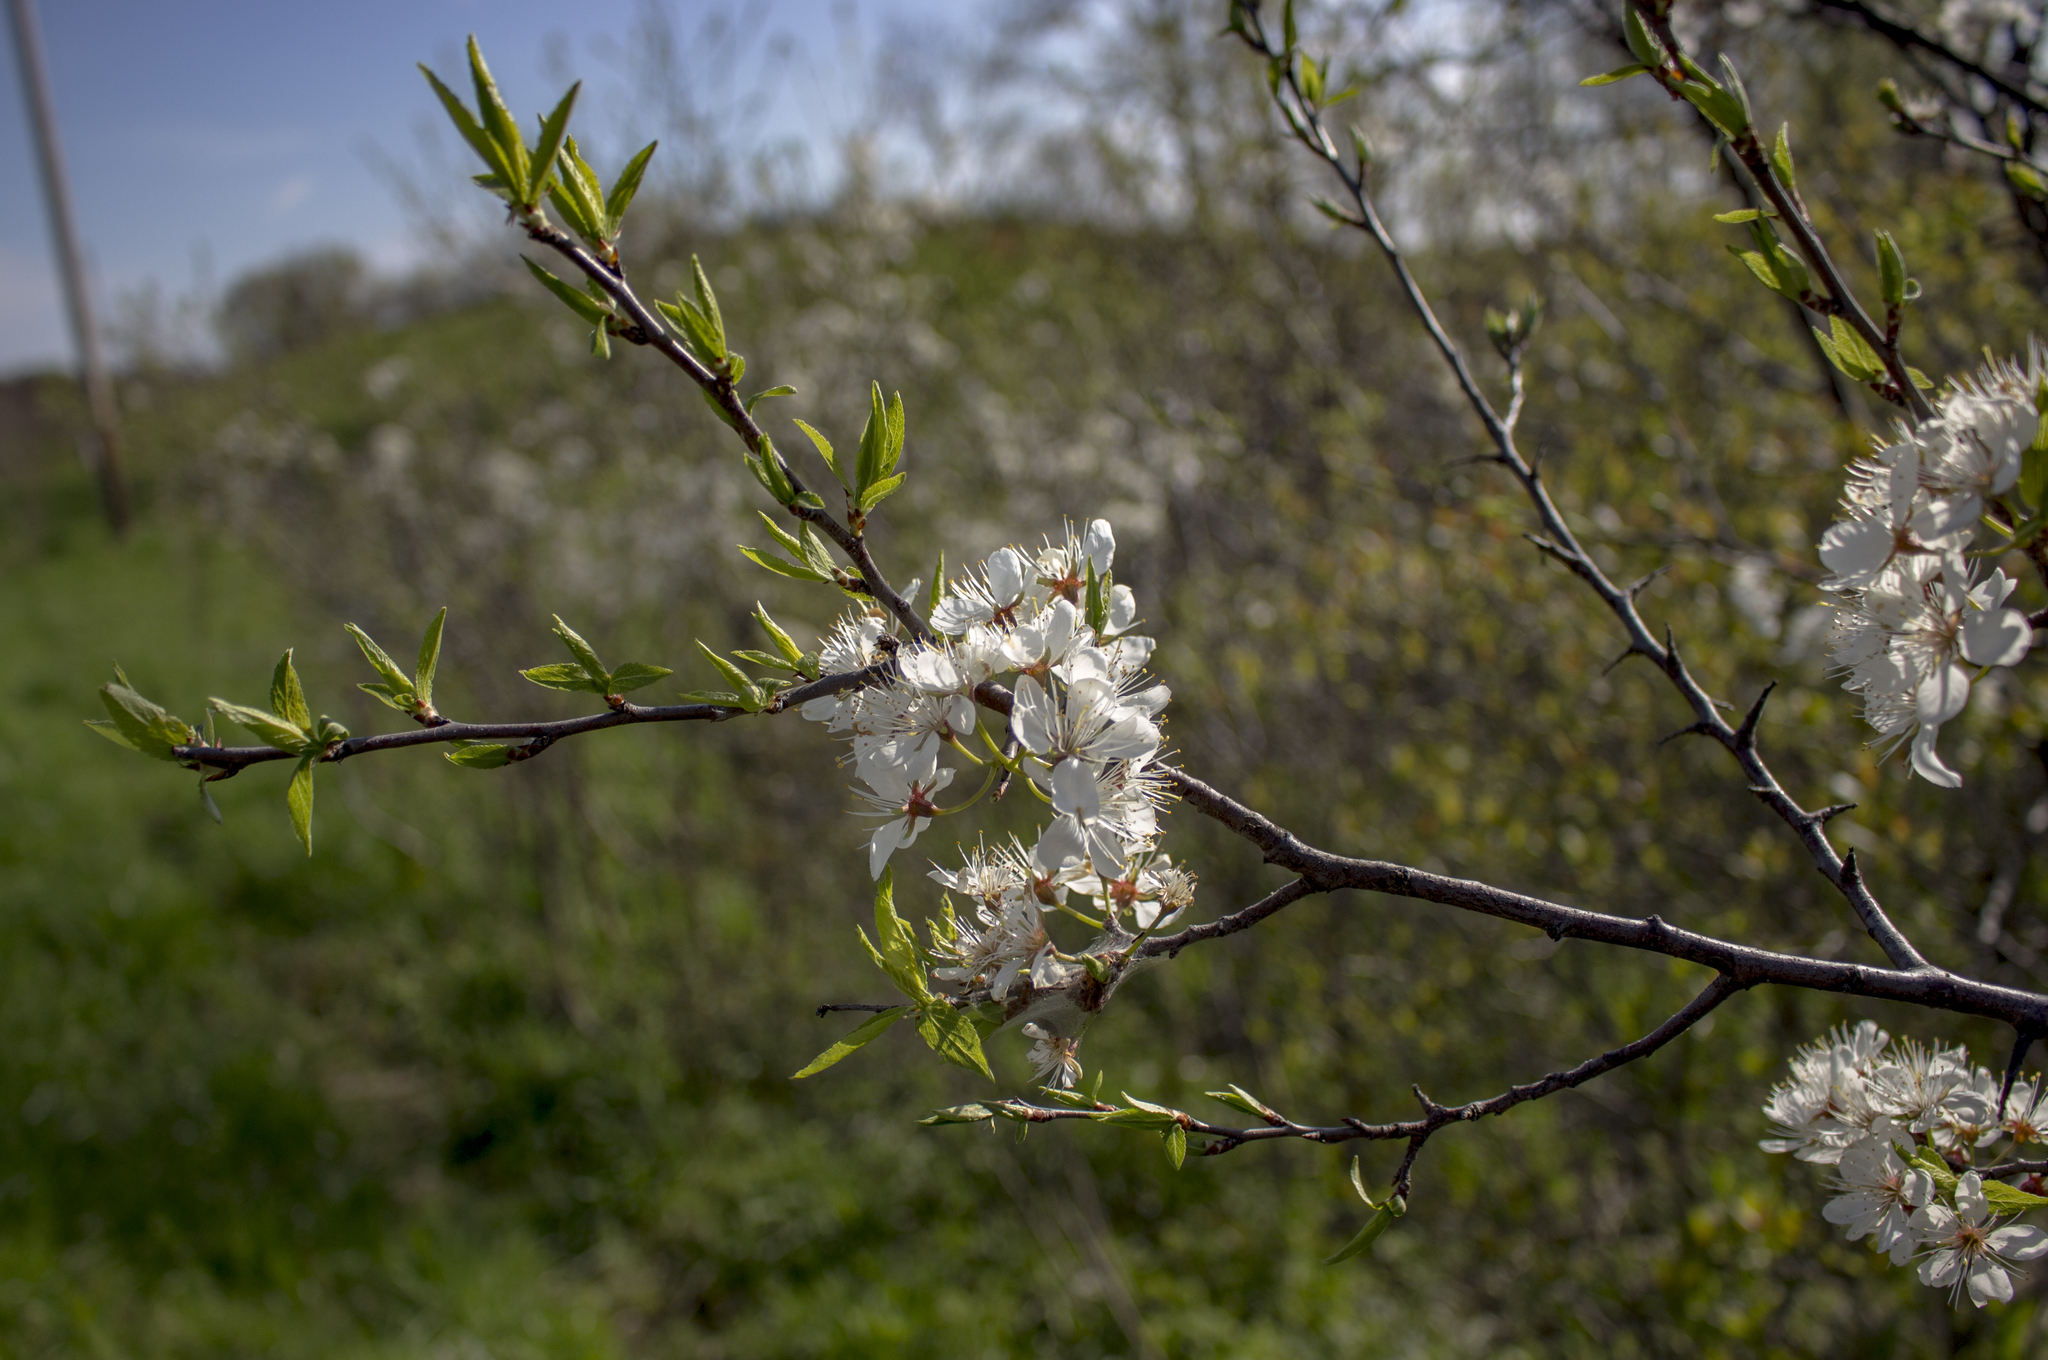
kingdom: Plantae
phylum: Tracheophyta
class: Magnoliopsida
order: Rosales
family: Rosaceae
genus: Prunus
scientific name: Prunus americana
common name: American plum
